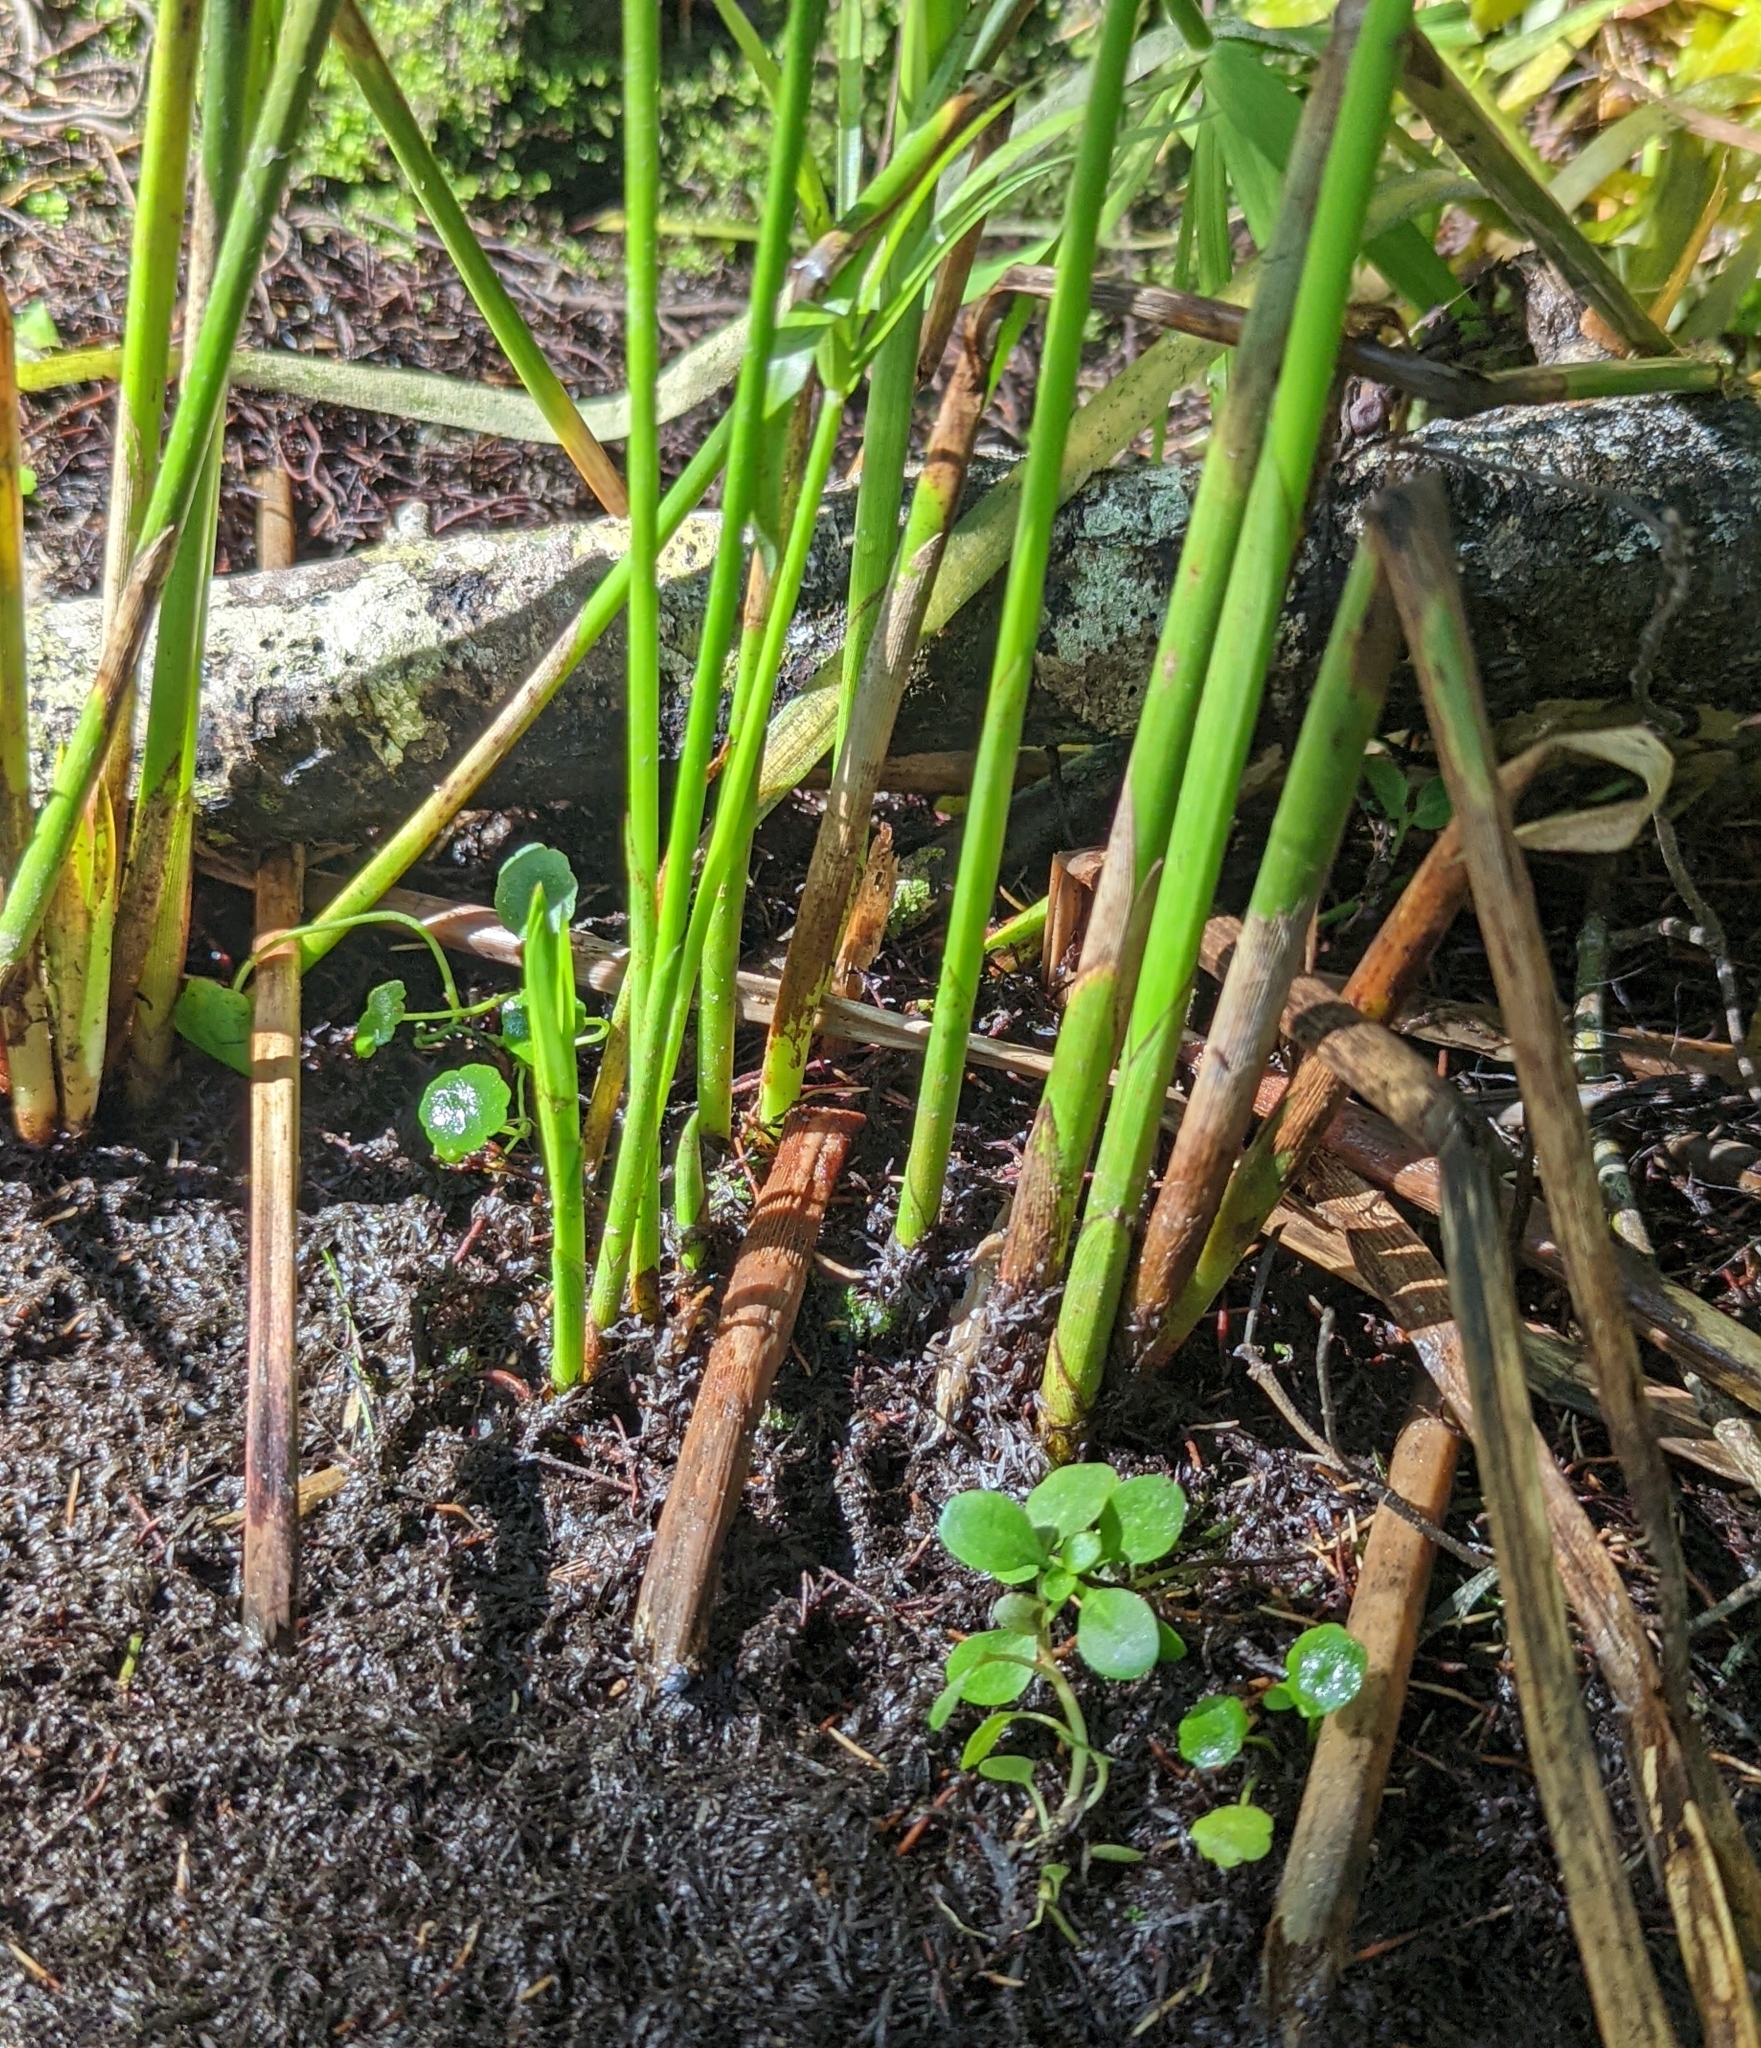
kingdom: Plantae
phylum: Tracheophyta
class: Liliopsida
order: Poales
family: Cyperaceae
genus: Cyperus
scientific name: Cyperus alternifolius
